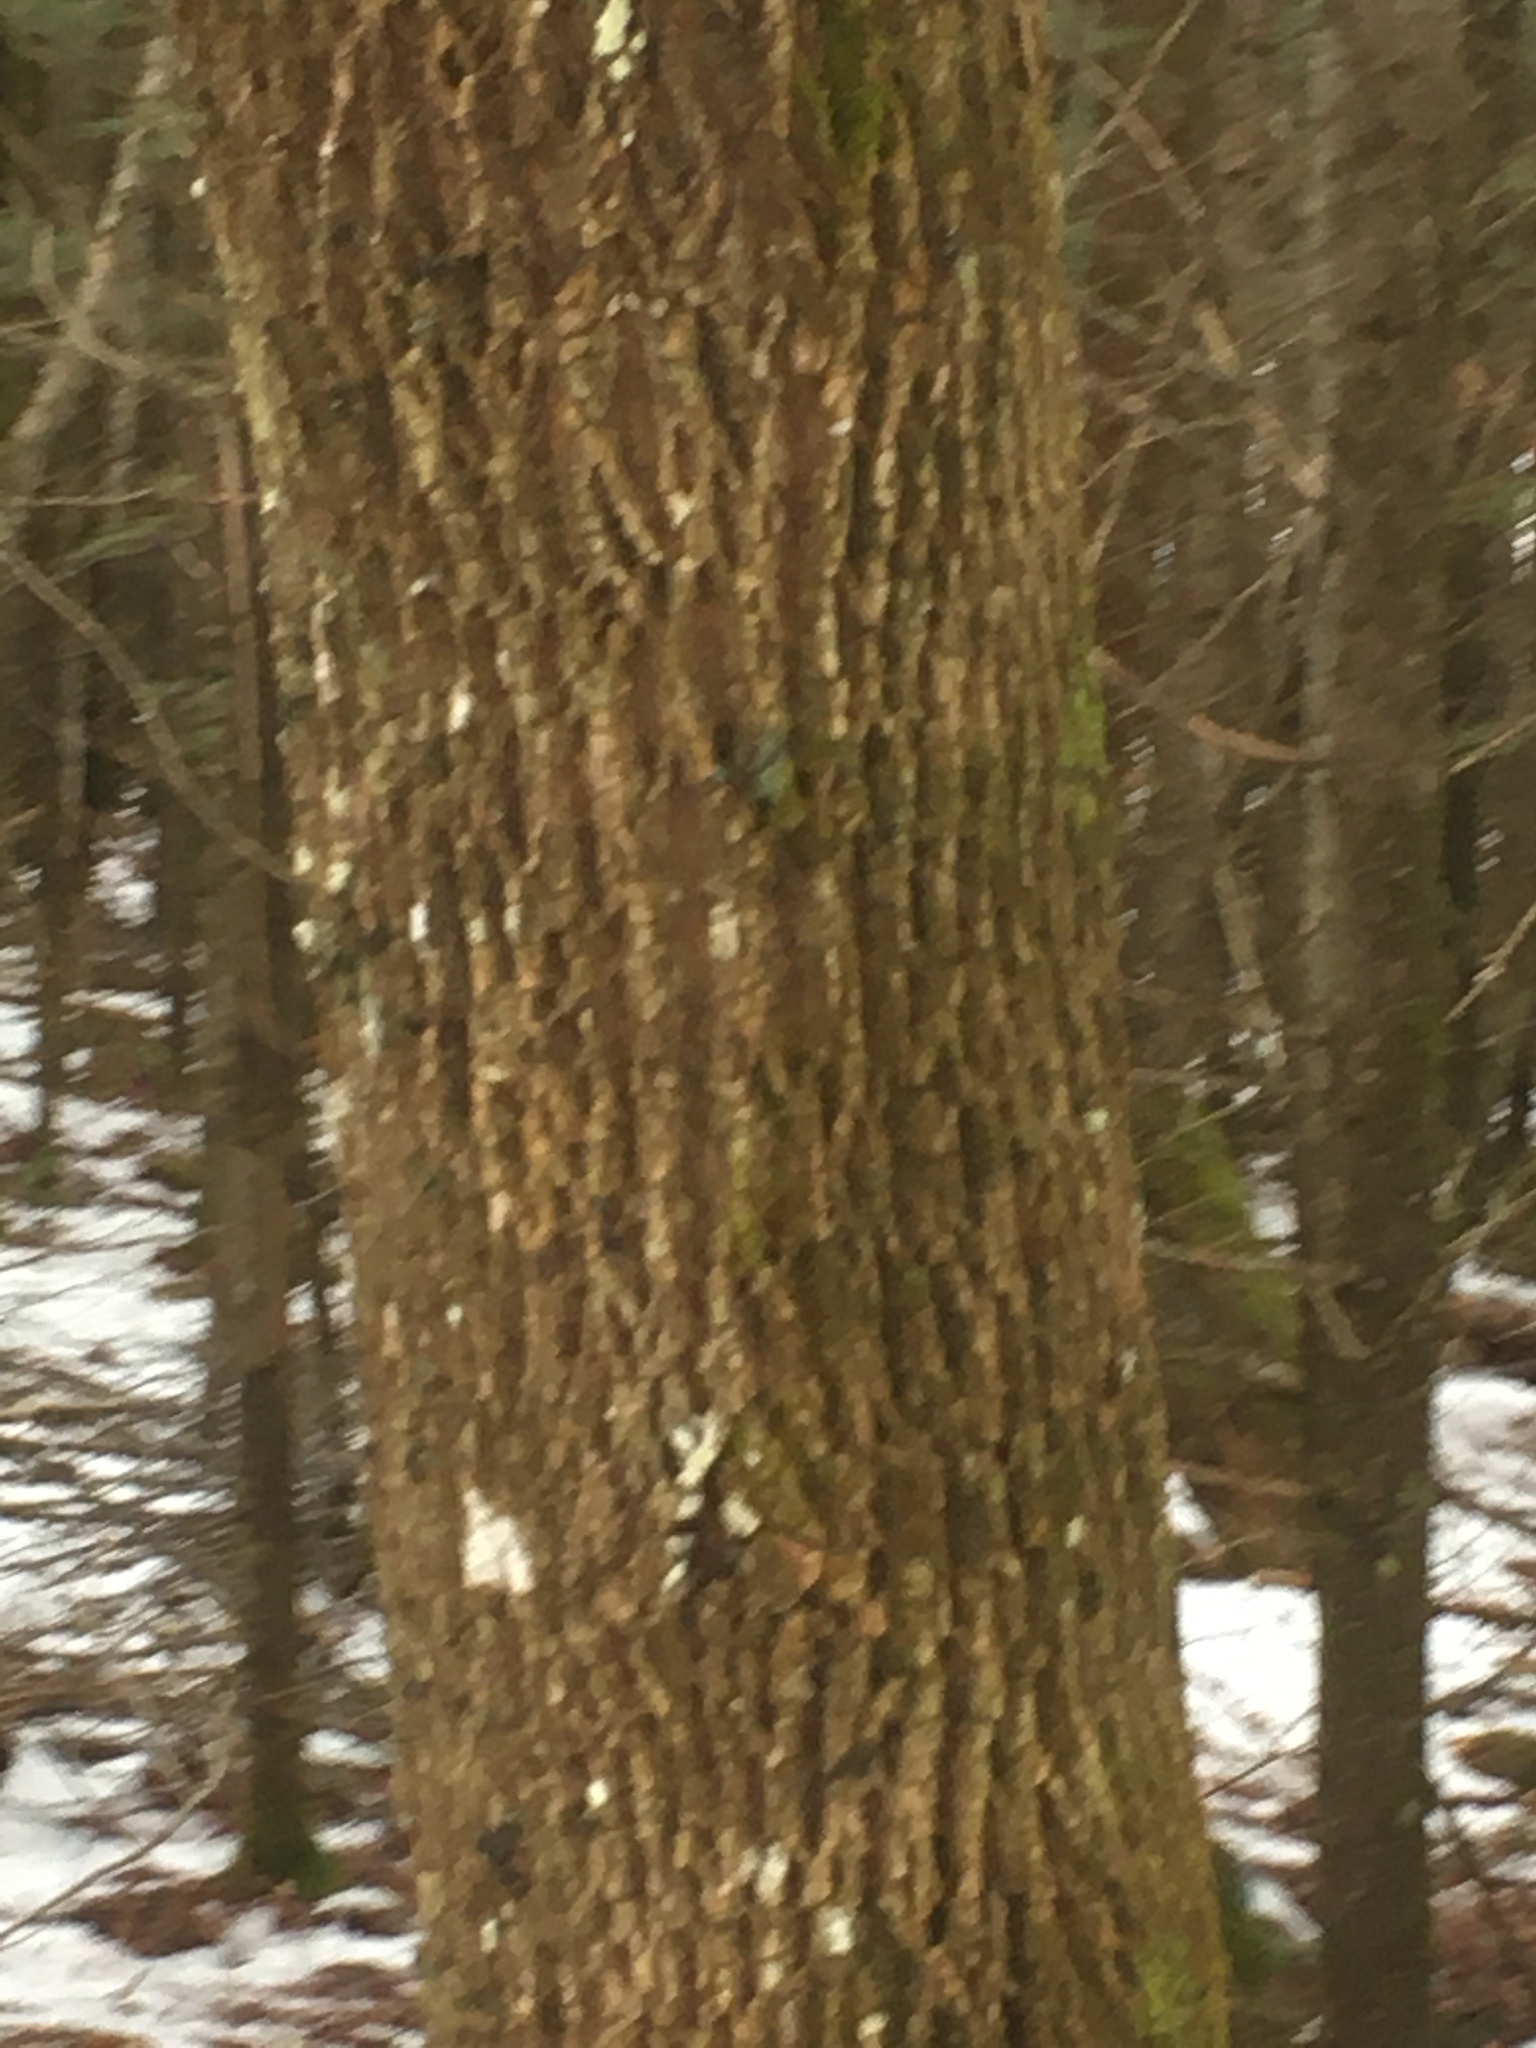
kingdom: Plantae
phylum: Tracheophyta
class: Magnoliopsida
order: Lamiales
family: Oleaceae
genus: Fraxinus
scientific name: Fraxinus americana
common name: White ash
